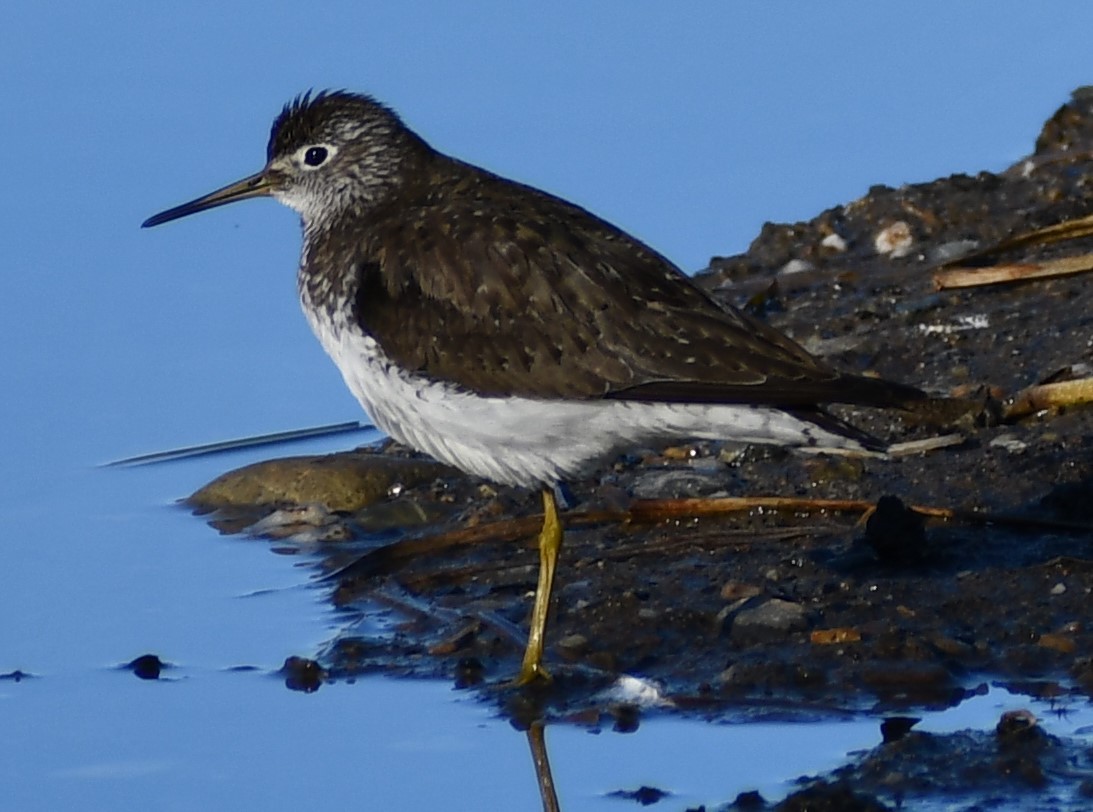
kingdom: Animalia
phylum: Chordata
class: Aves
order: Charadriiformes
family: Scolopacidae
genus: Tringa
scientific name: Tringa solitaria
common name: Solitary sandpiper
